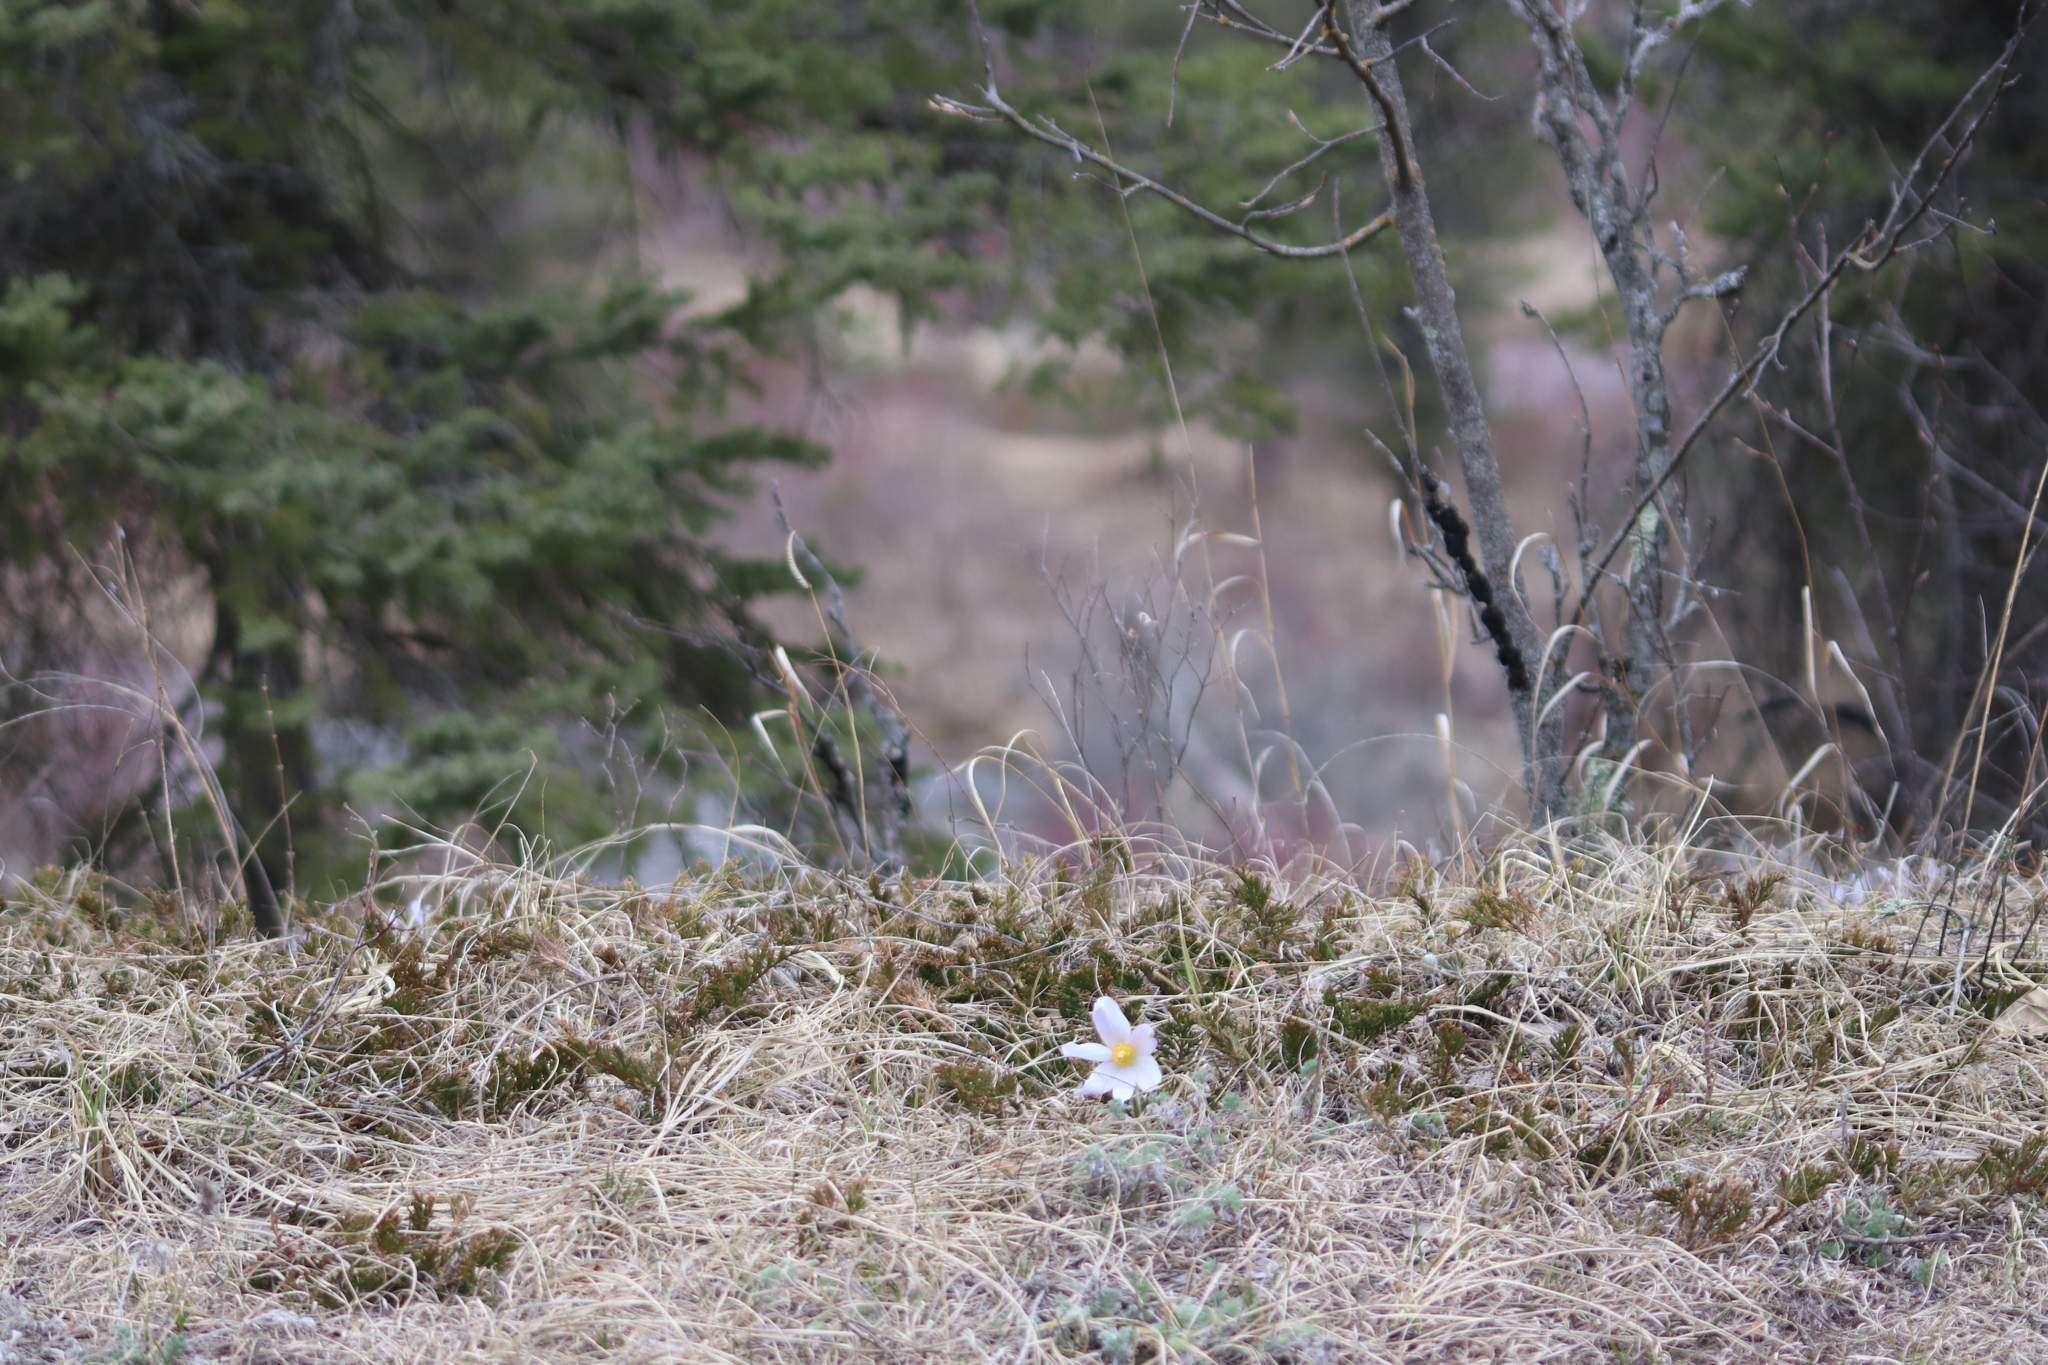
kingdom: Plantae
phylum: Tracheophyta
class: Magnoliopsida
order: Ranunculales
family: Ranunculaceae
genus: Pulsatilla
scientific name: Pulsatilla nuttalliana
